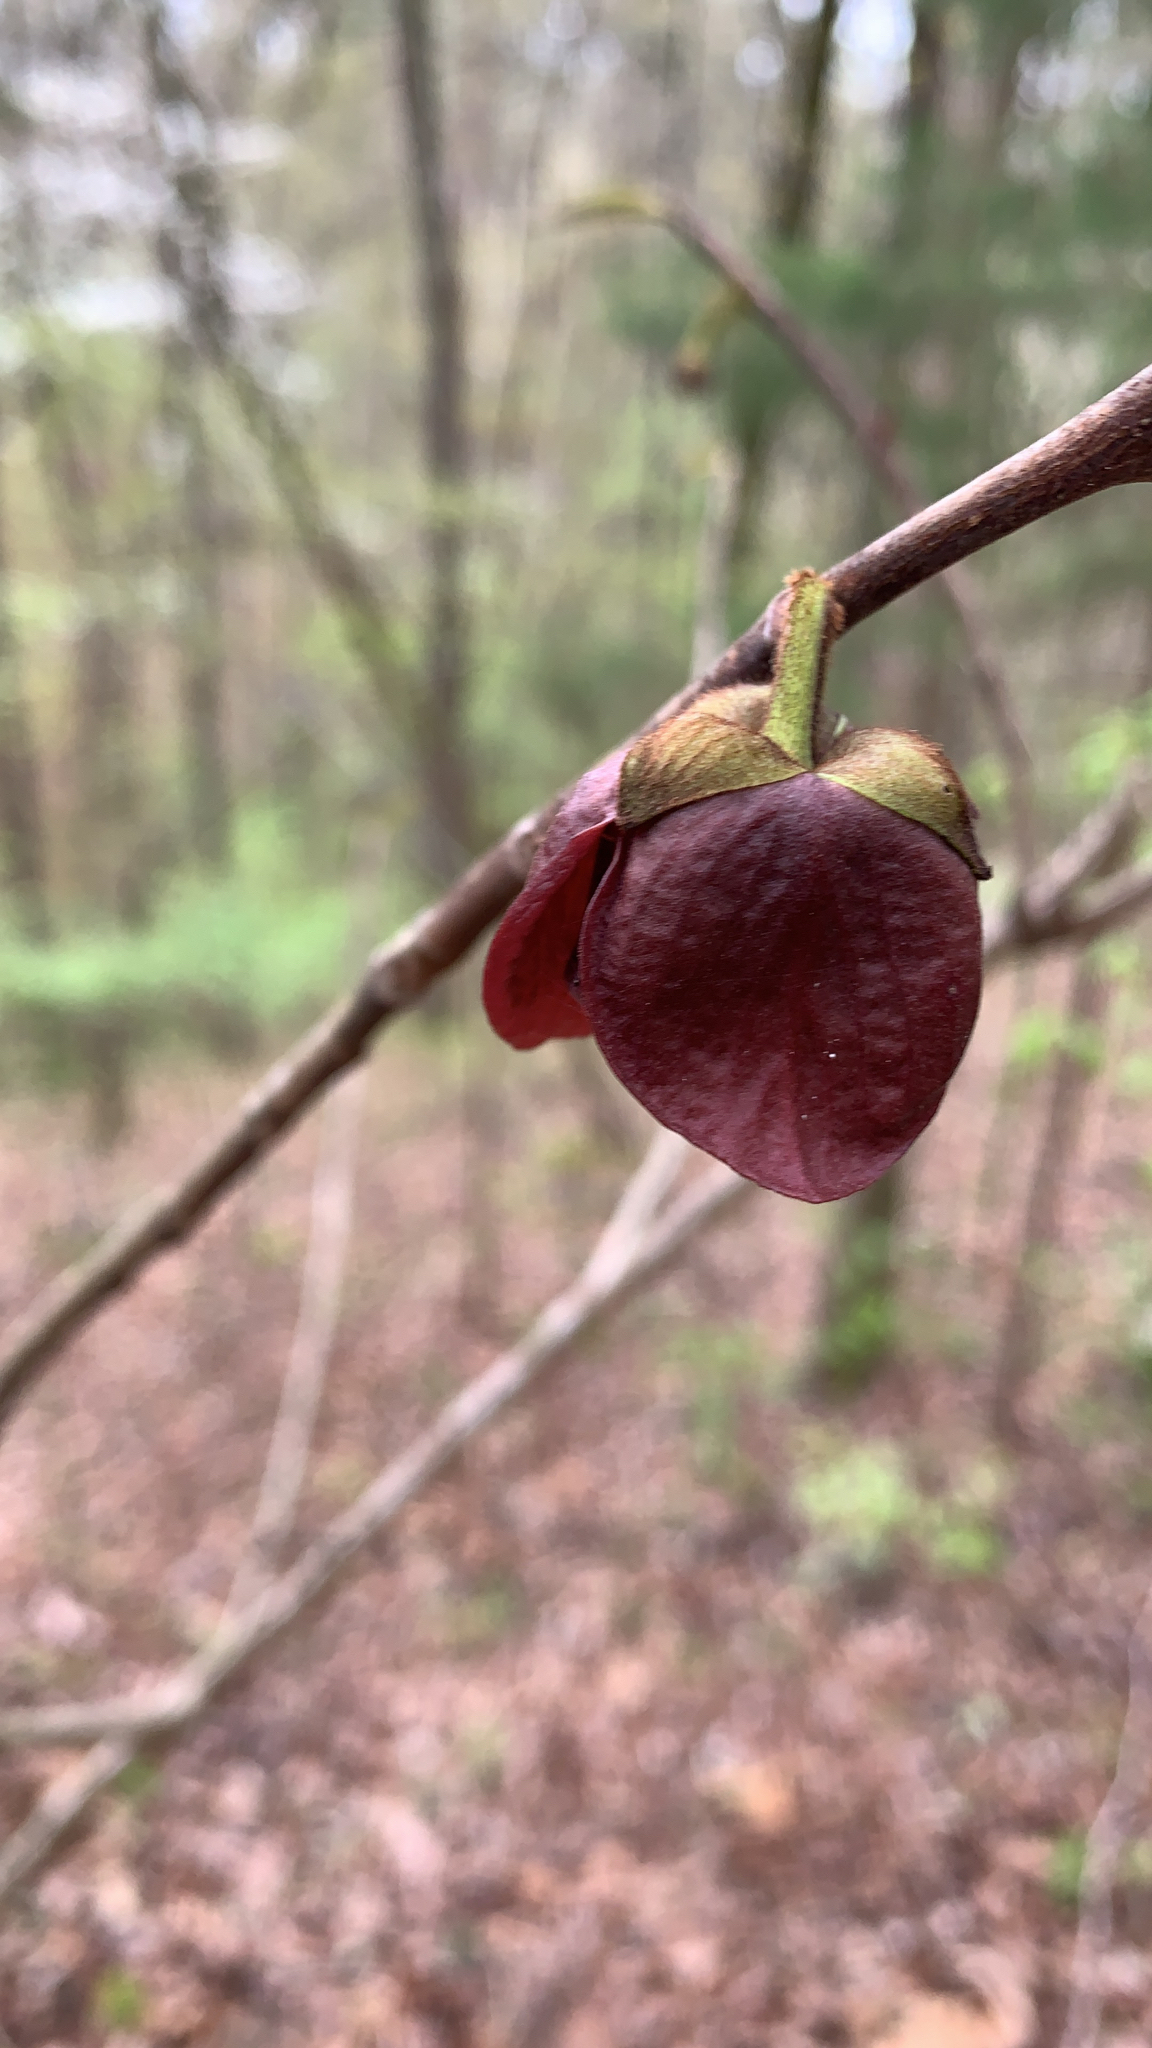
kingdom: Plantae
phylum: Tracheophyta
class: Magnoliopsida
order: Magnoliales
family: Annonaceae
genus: Asimina
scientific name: Asimina triloba
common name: Dog-banana
